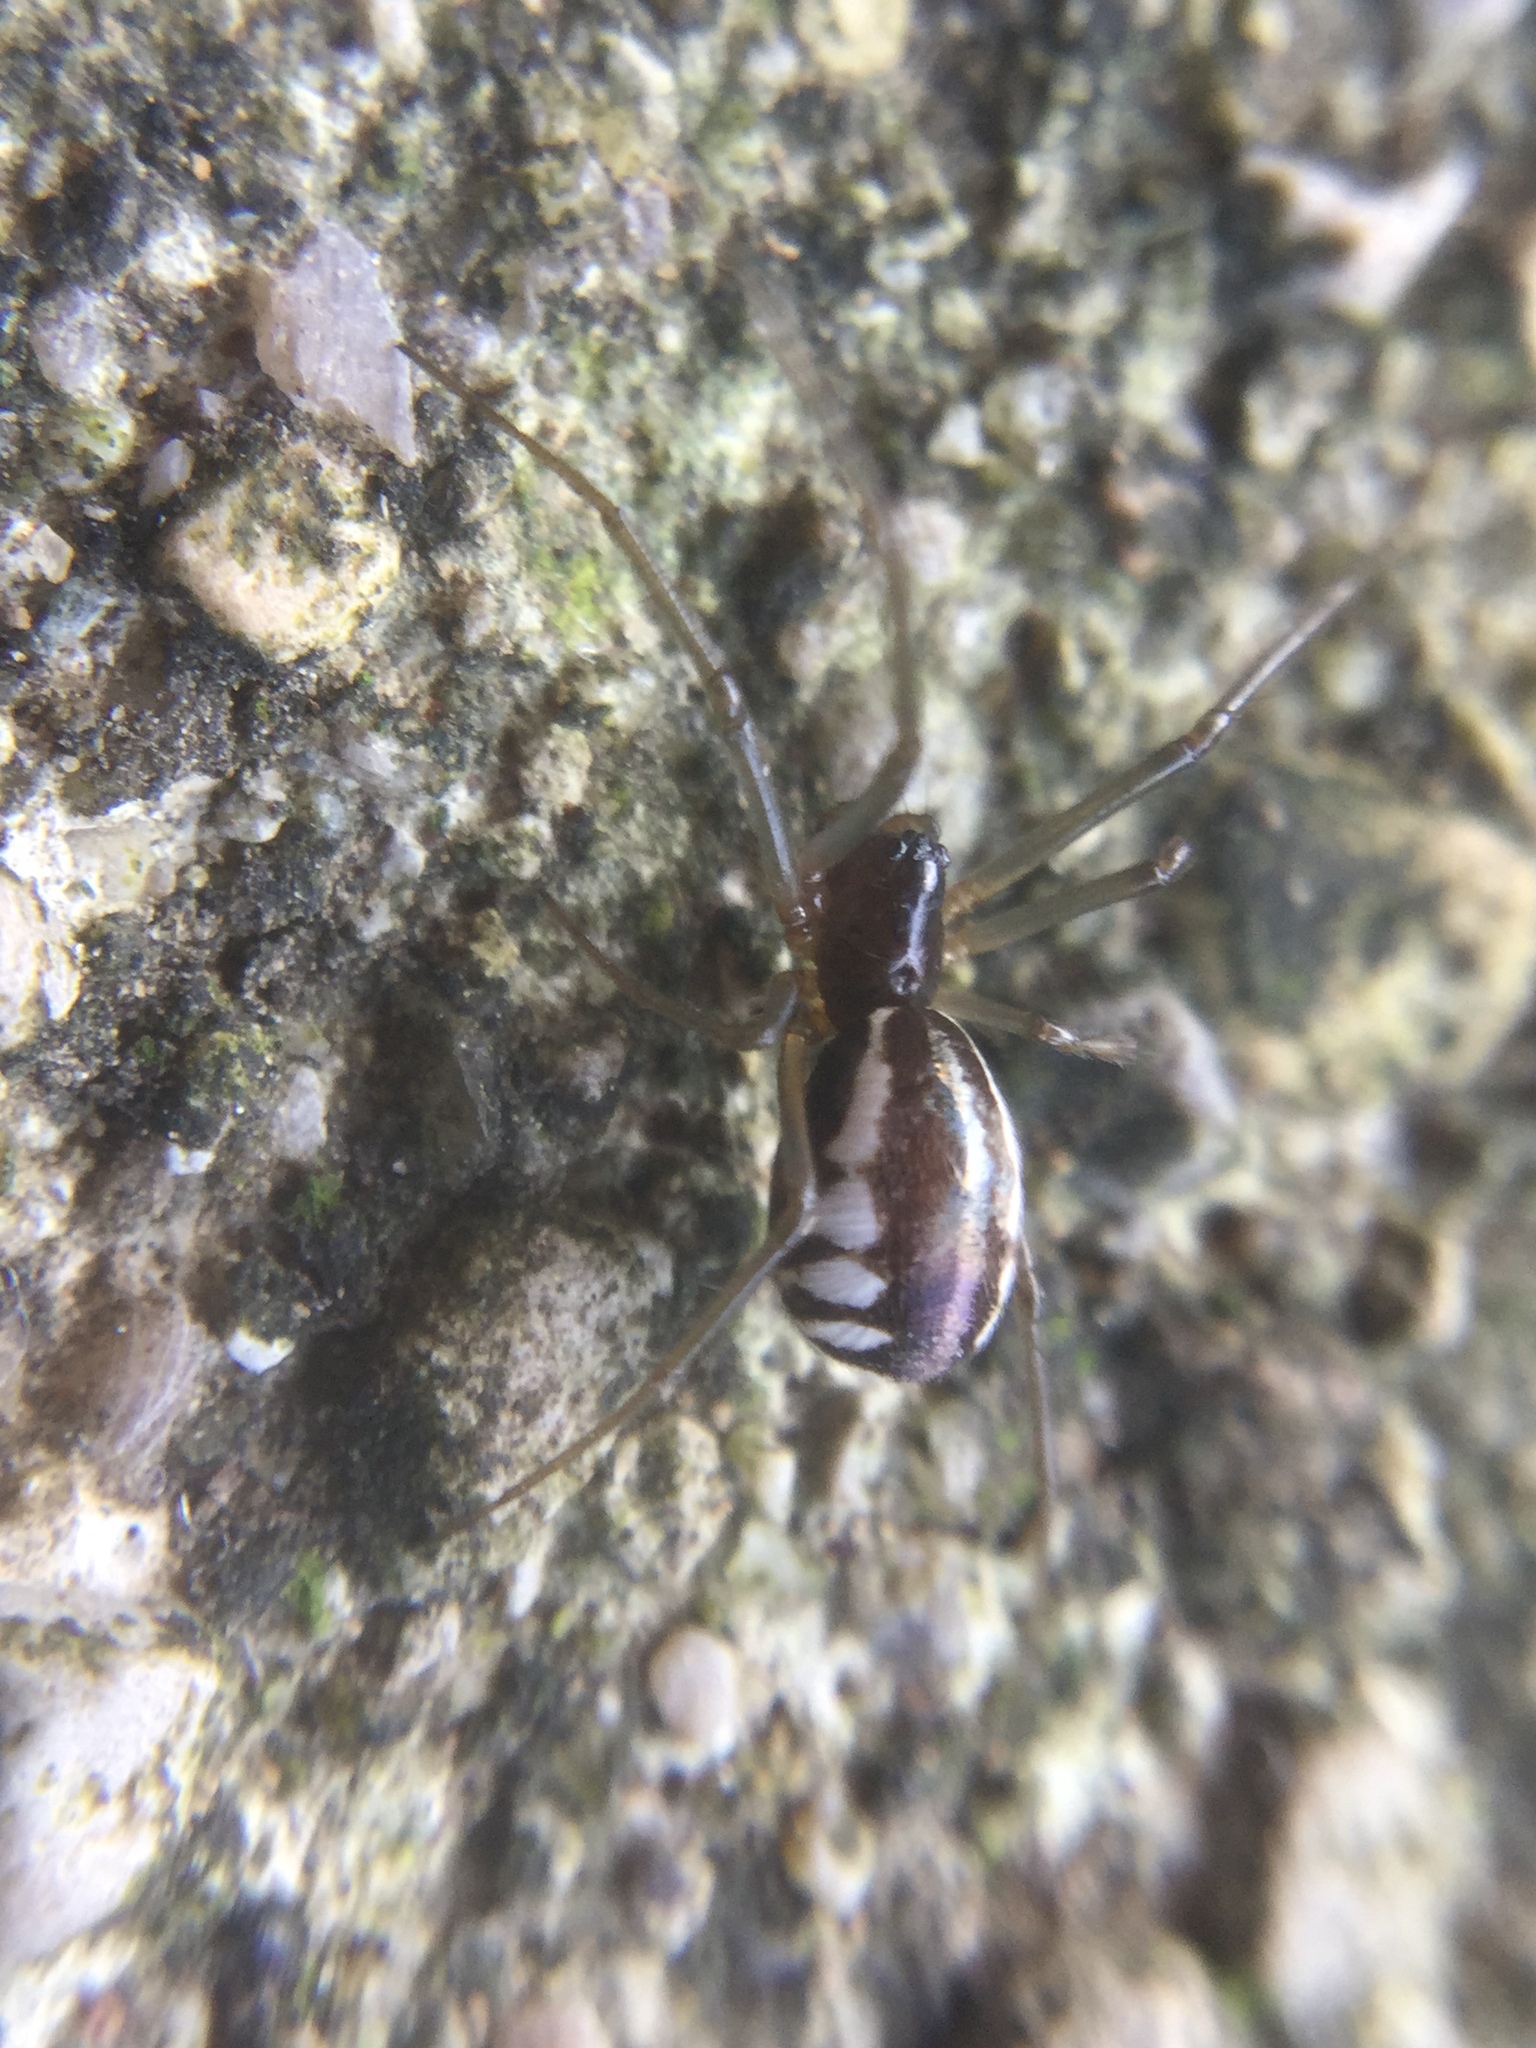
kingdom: Animalia
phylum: Arthropoda
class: Arachnida
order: Araneae
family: Linyphiidae
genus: Frontinella
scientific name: Frontinella pyramitela
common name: Bowl-and-doily spider
